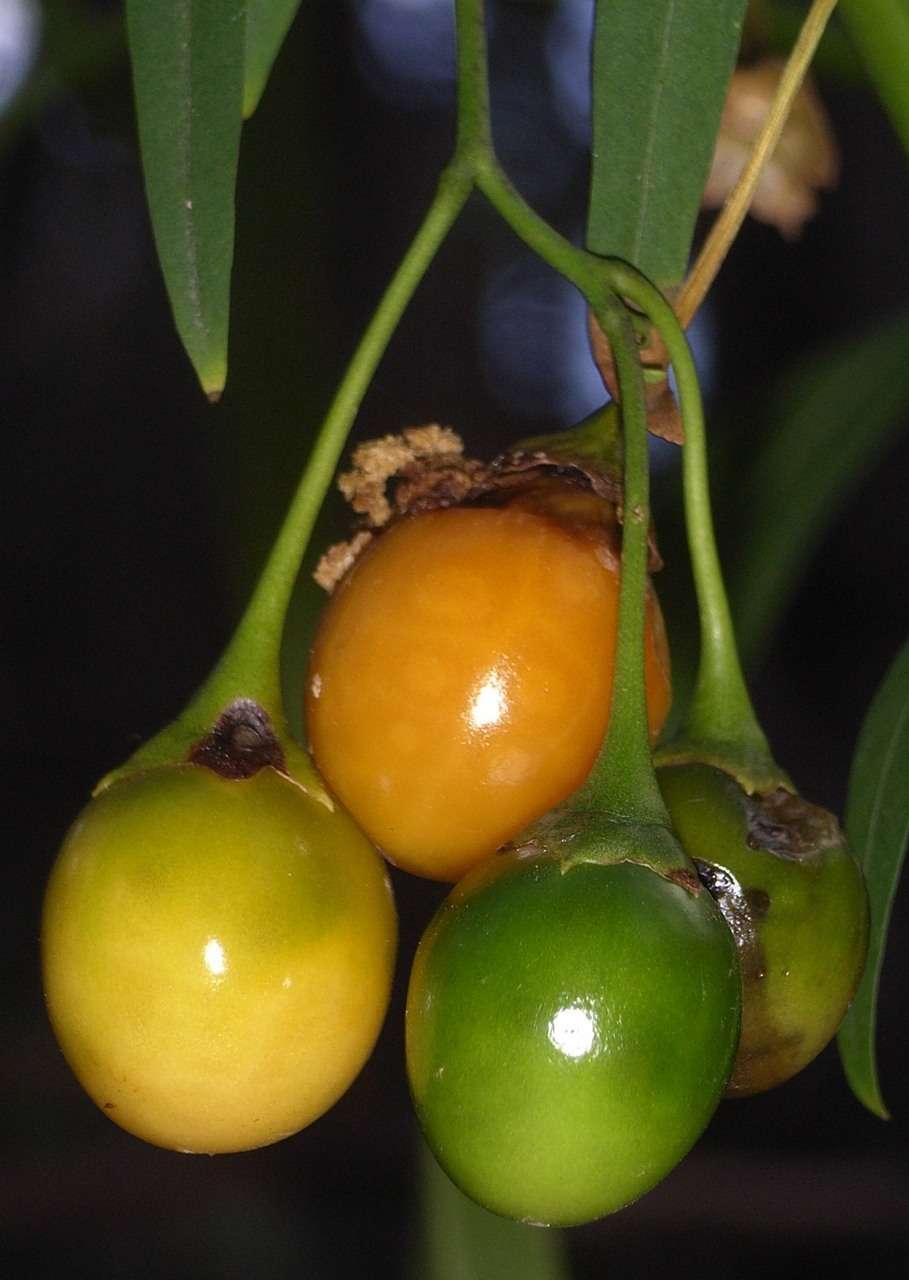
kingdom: Plantae
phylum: Tracheophyta
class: Magnoliopsida
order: Solanales
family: Solanaceae
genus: Solanum
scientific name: Solanum laciniatum
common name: Kangaroo-apple
